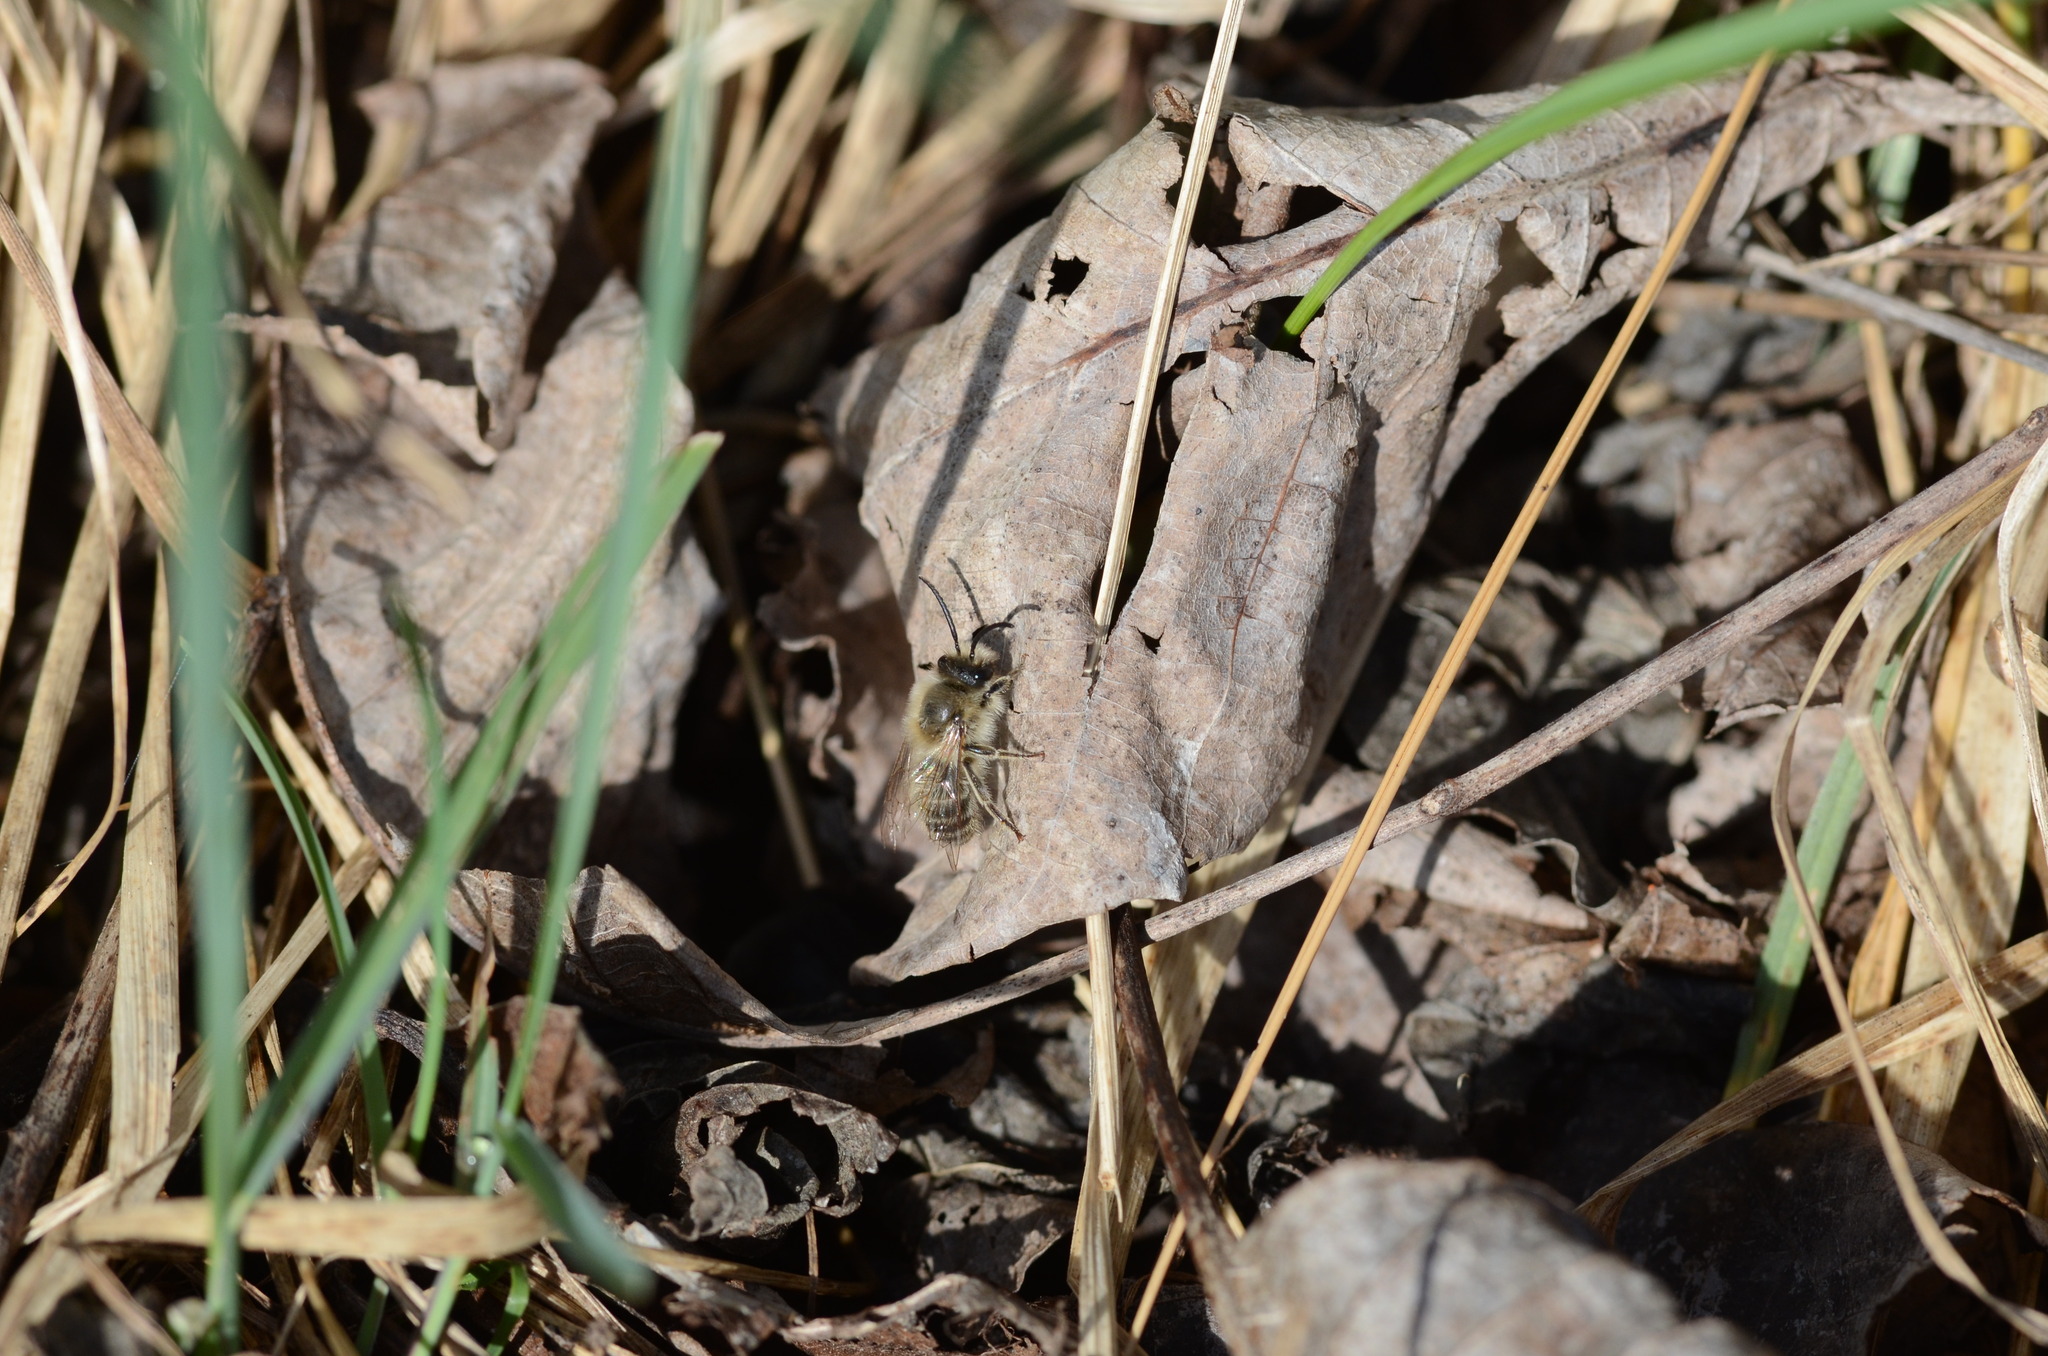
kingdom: Animalia
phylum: Arthropoda
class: Insecta
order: Hymenoptera
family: Colletidae
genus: Colletes
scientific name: Colletes cunicularius
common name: Early colletes
